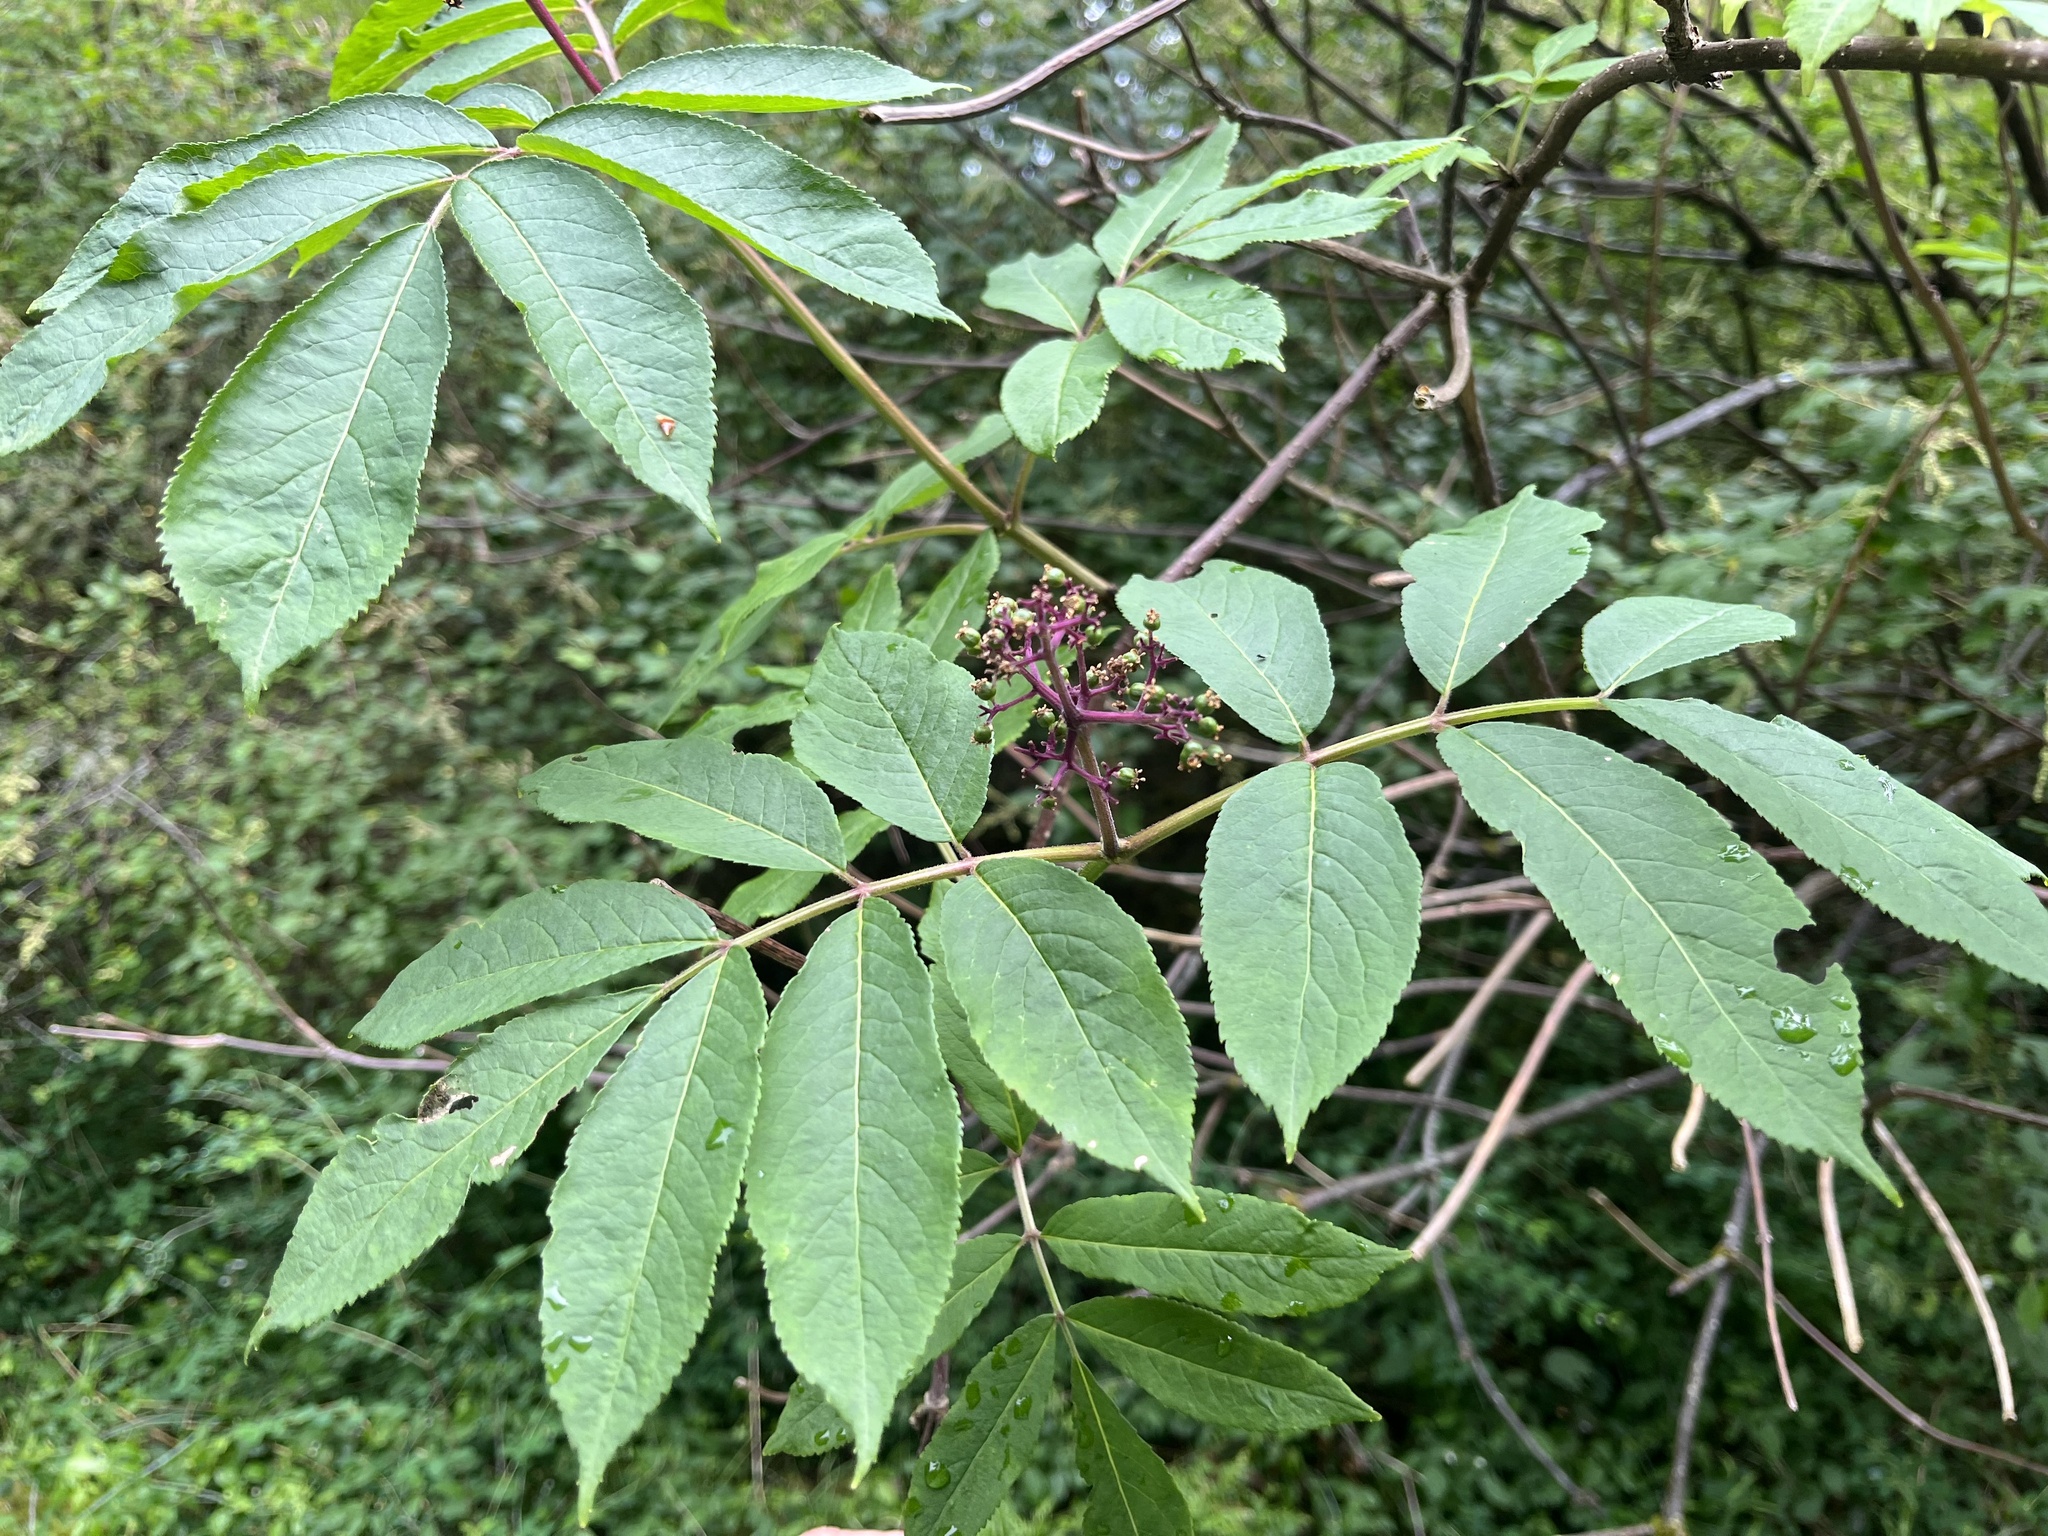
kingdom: Plantae
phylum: Tracheophyta
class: Magnoliopsida
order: Dipsacales
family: Viburnaceae
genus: Sambucus
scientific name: Sambucus racemosa
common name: Red-berried elder
